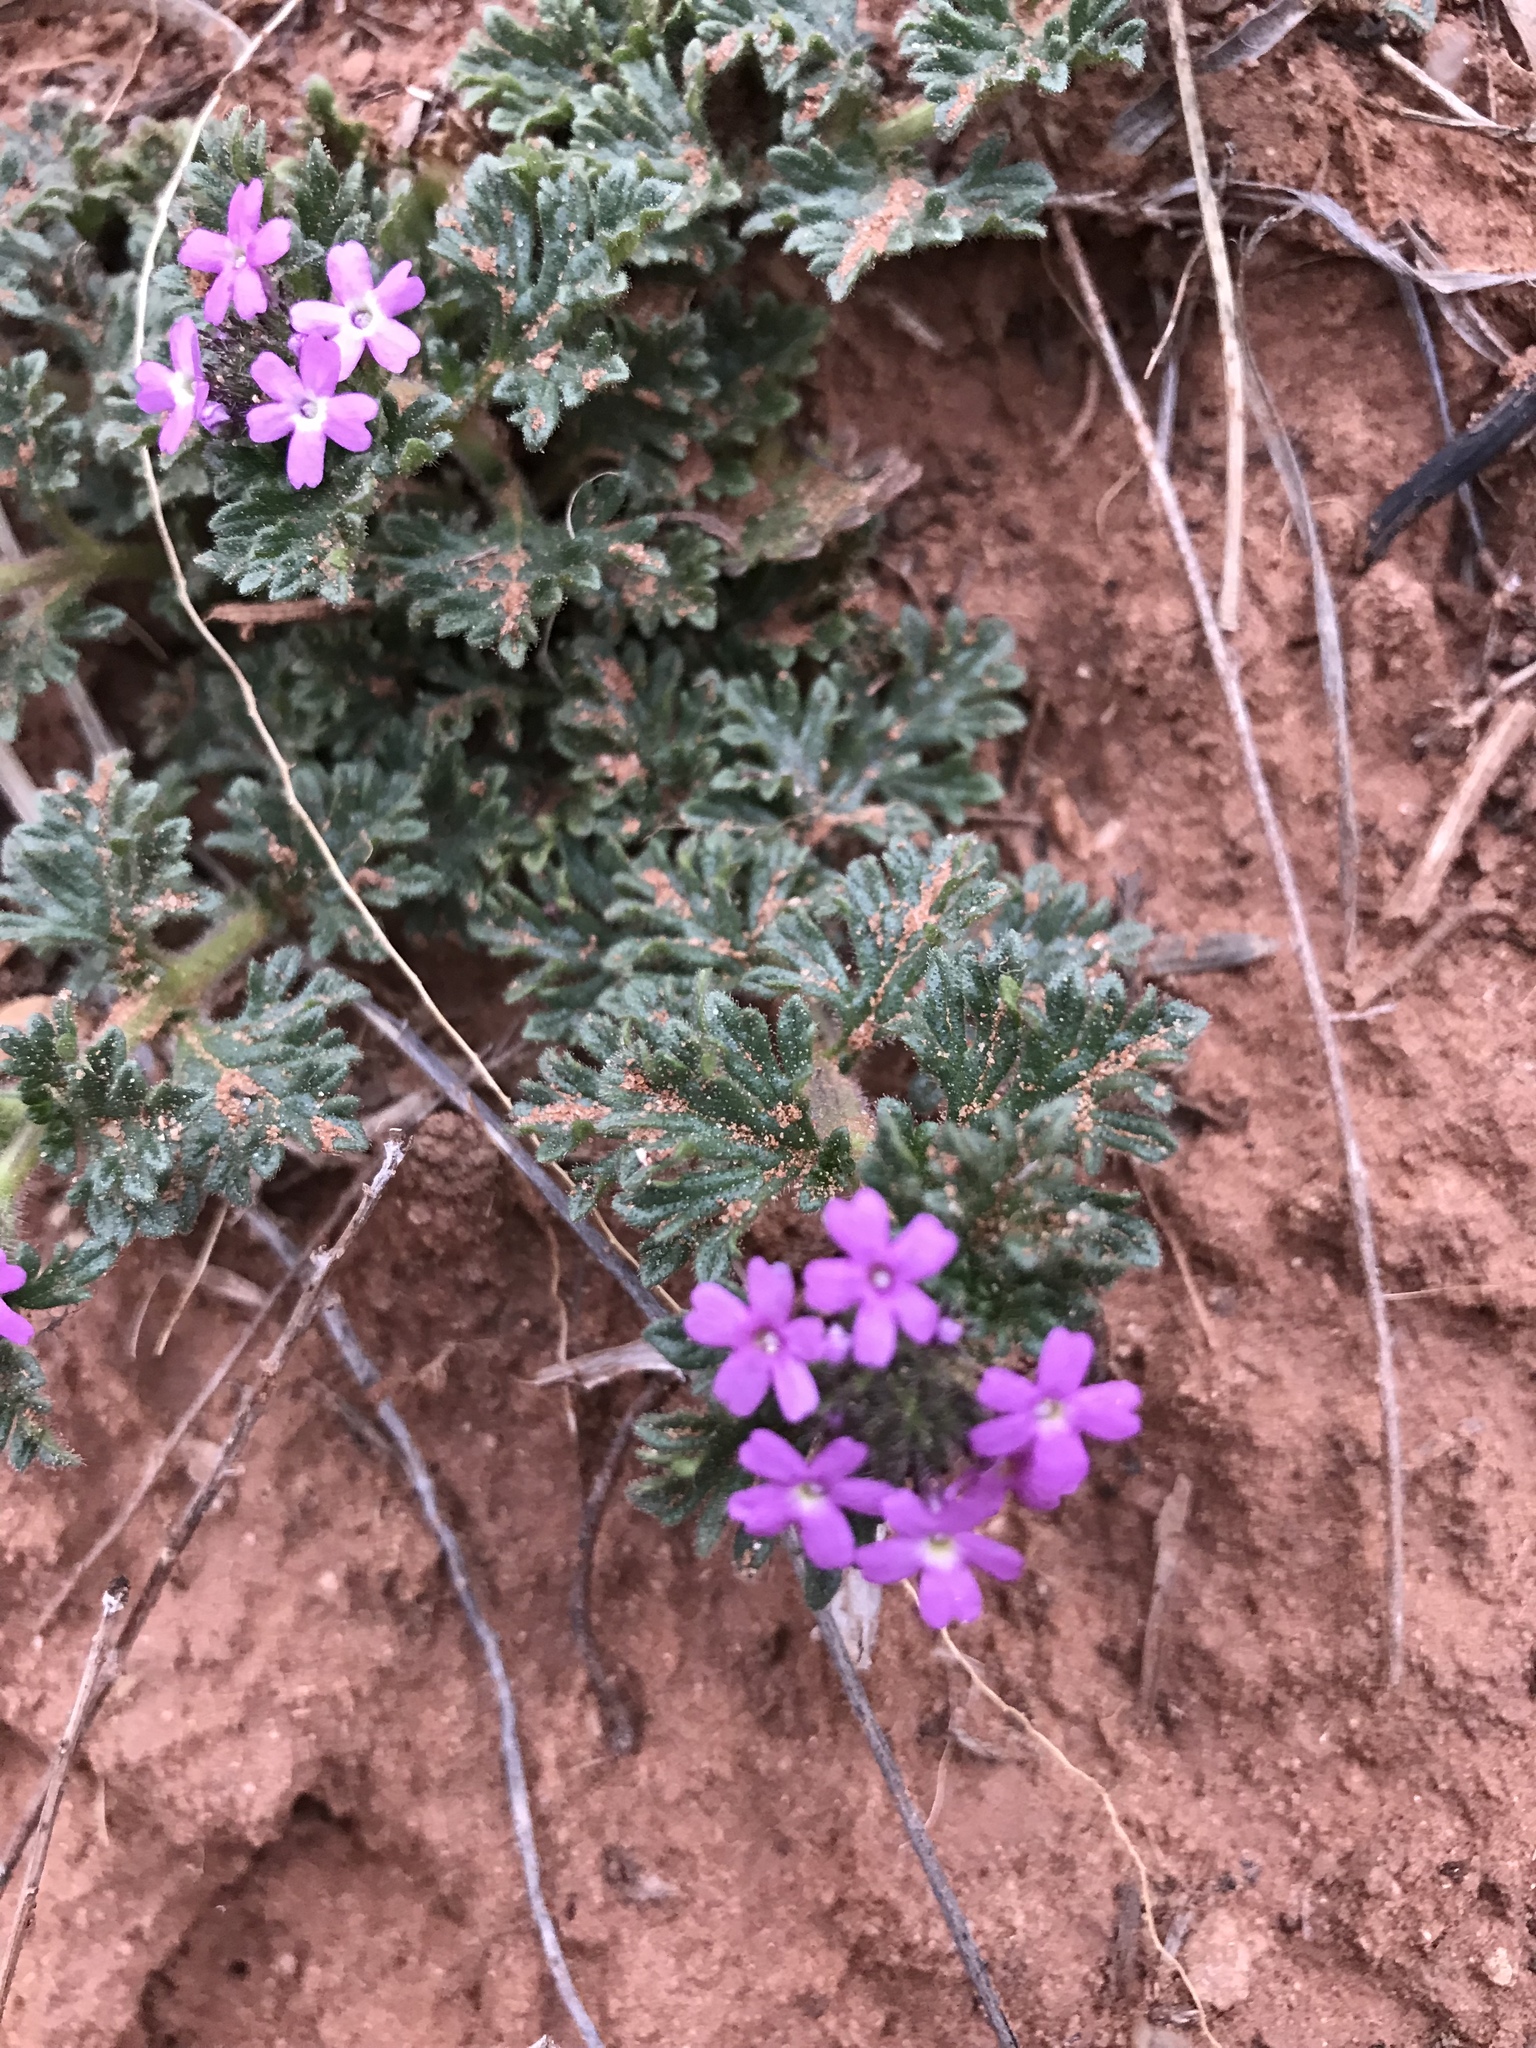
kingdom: Plantae
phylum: Tracheophyta
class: Magnoliopsida
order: Lamiales
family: Verbenaceae
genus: Verbena
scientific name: Verbena pumila
